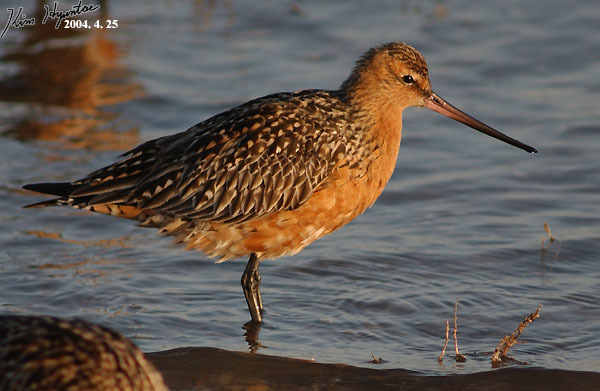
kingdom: Animalia
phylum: Chordata
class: Aves
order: Charadriiformes
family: Scolopacidae
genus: Limosa
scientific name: Limosa lapponica
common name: Bar-tailed godwit
